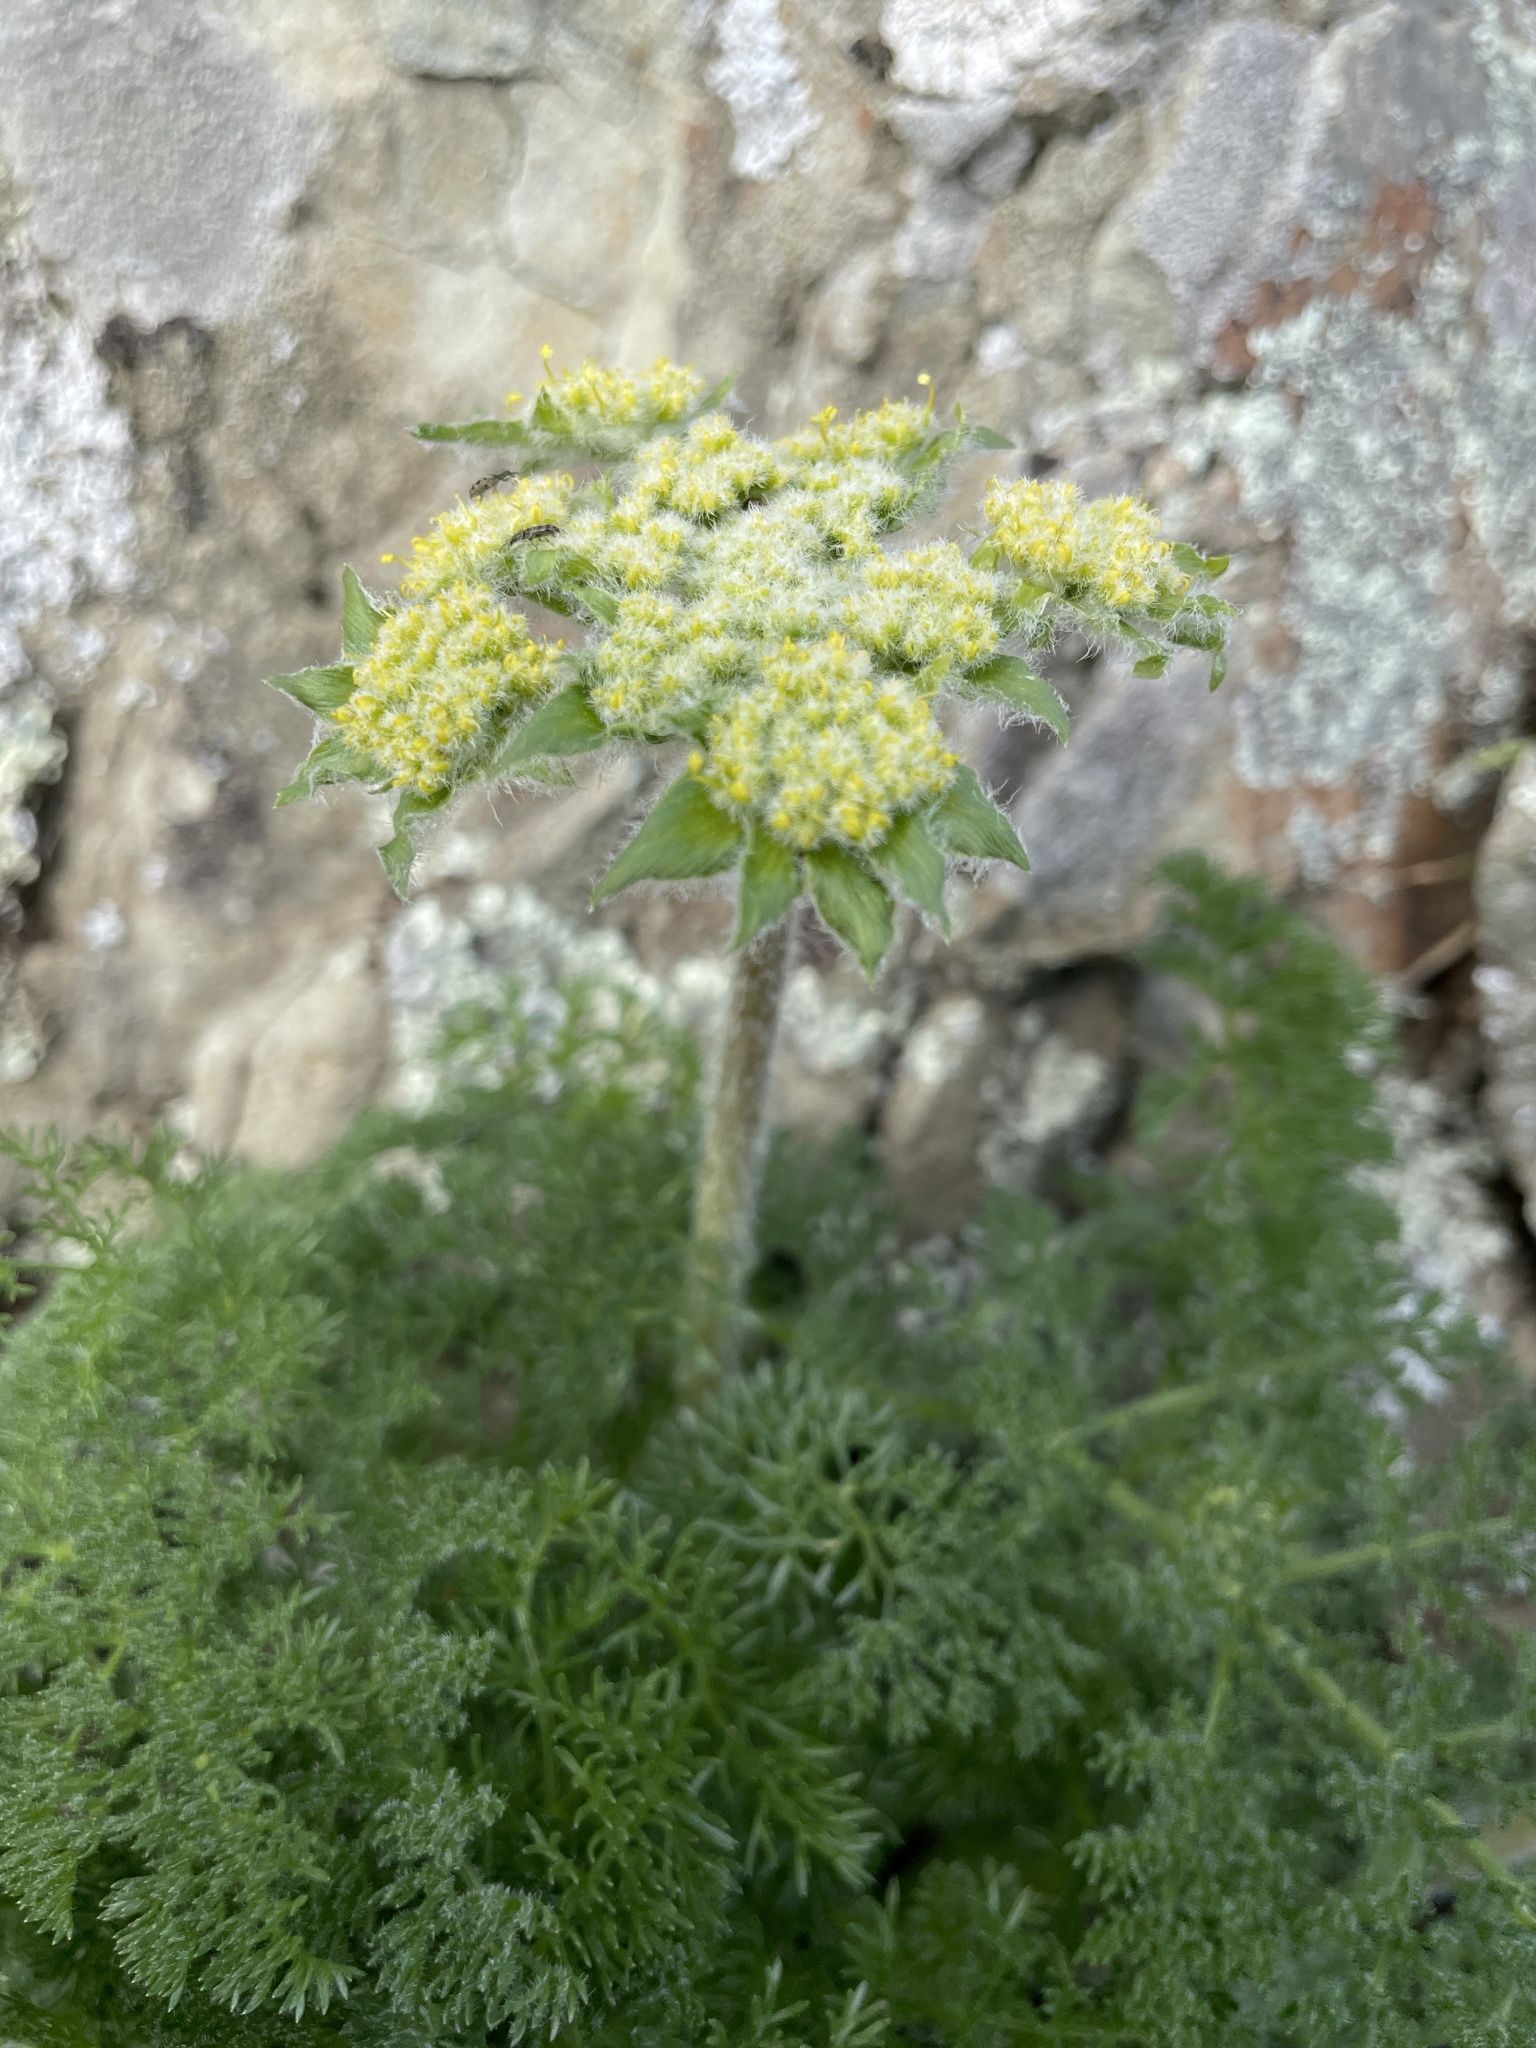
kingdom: Plantae
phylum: Tracheophyta
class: Magnoliopsida
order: Apiales
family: Apiaceae
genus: Lomatium
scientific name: Lomatium dasycarpum
